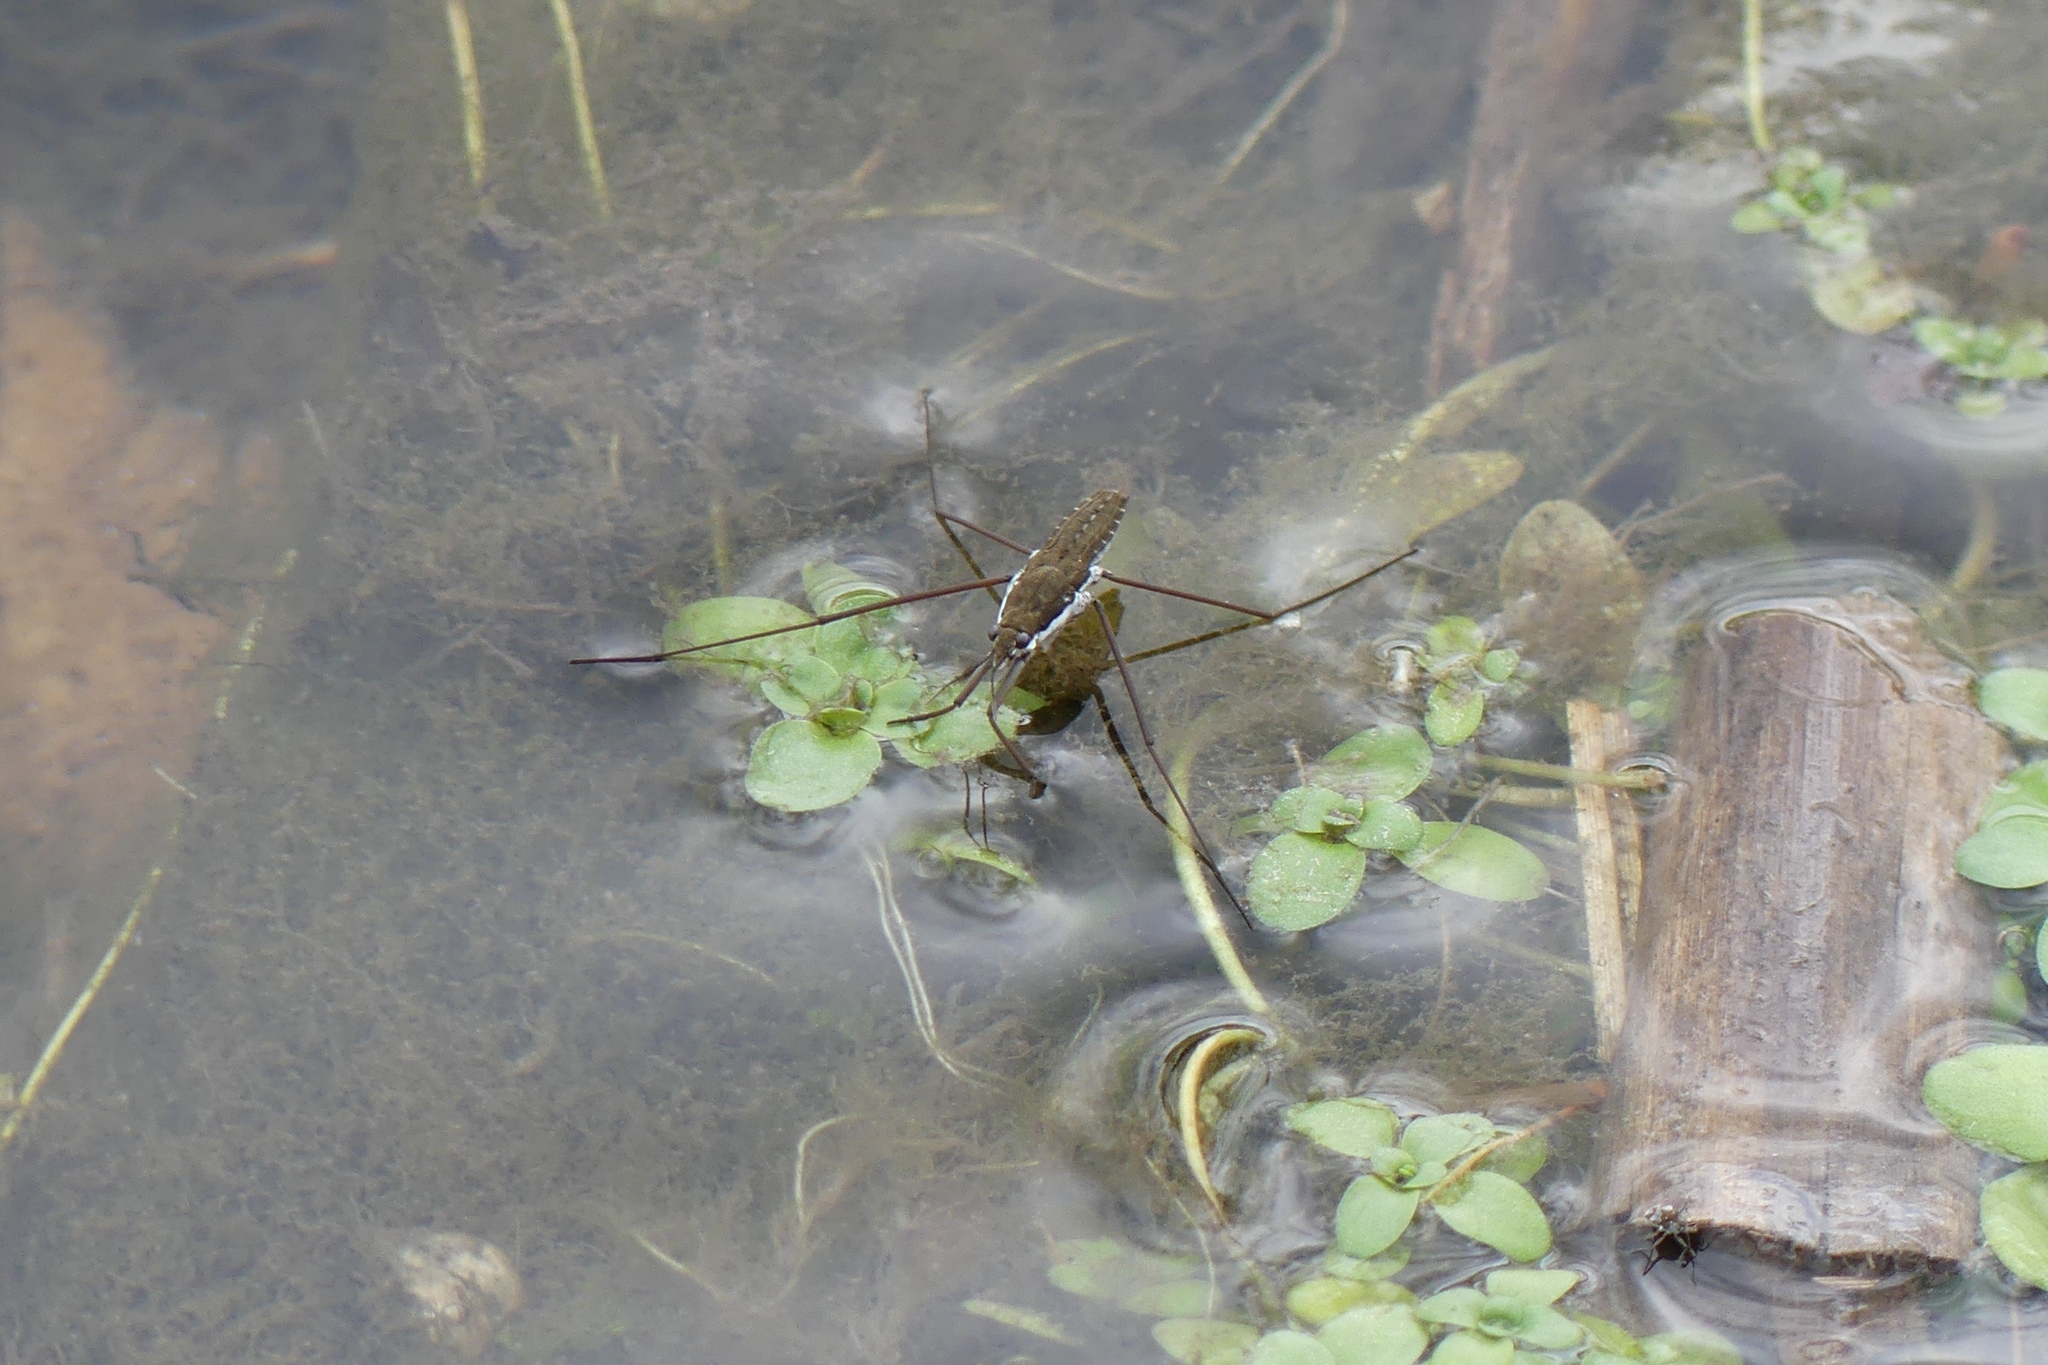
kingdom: Animalia
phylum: Arthropoda
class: Insecta
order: Hemiptera
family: Gerridae
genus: Aquarius
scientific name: Aquarius
